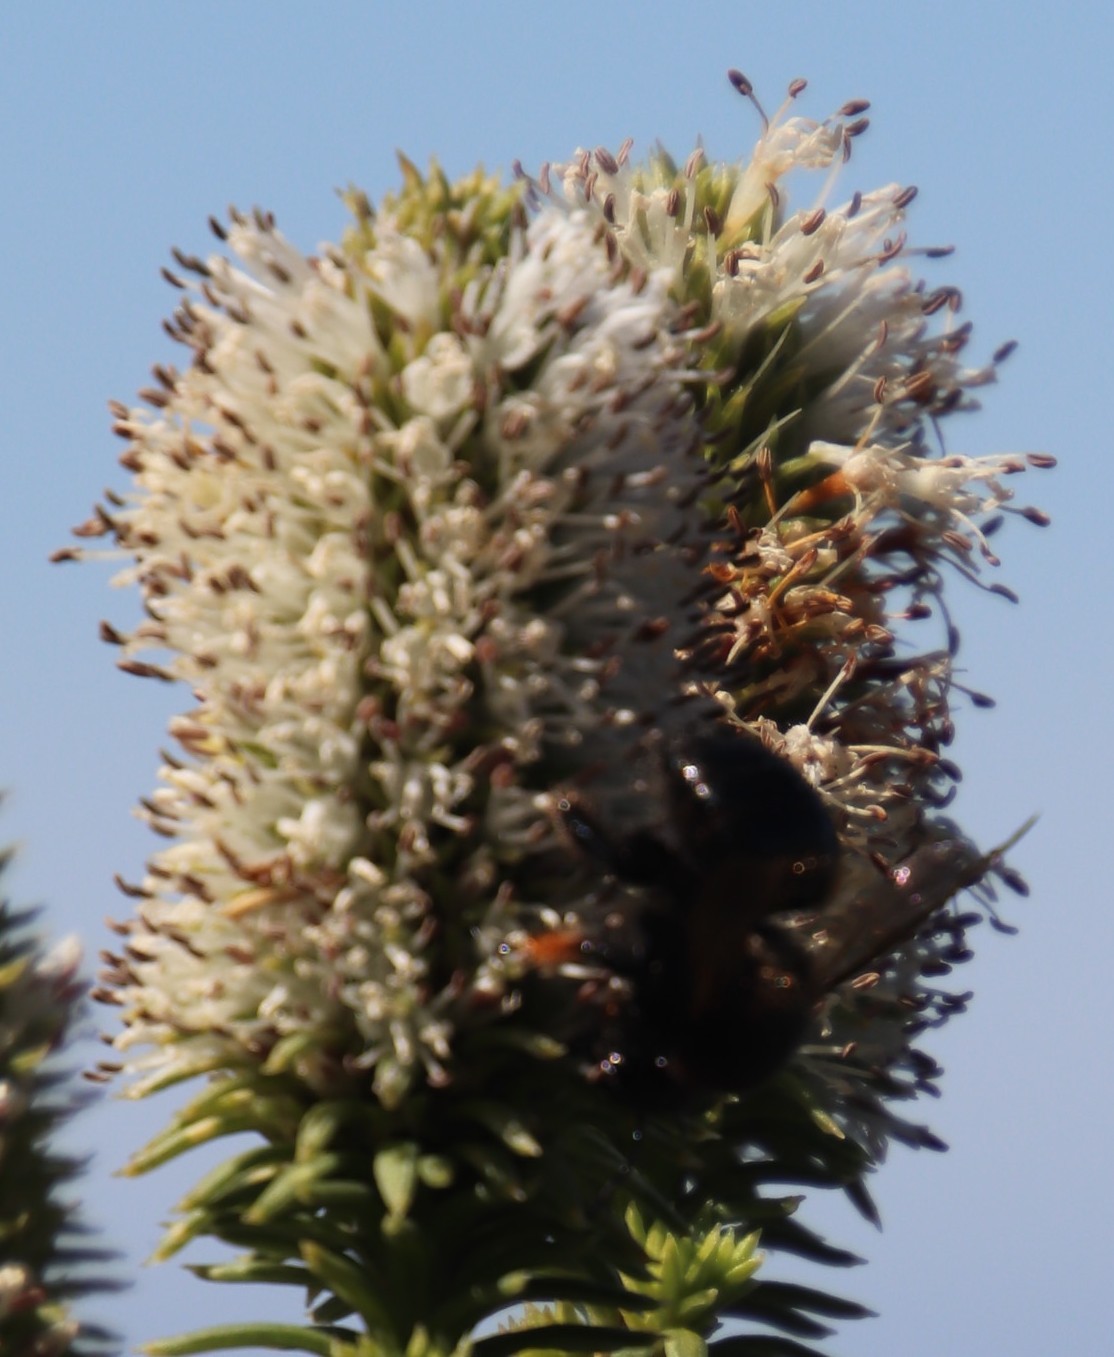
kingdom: Plantae
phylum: Tracheophyta
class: Magnoliopsida
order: Lamiales
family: Stilbaceae
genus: Stilbe
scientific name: Stilbe vestita
